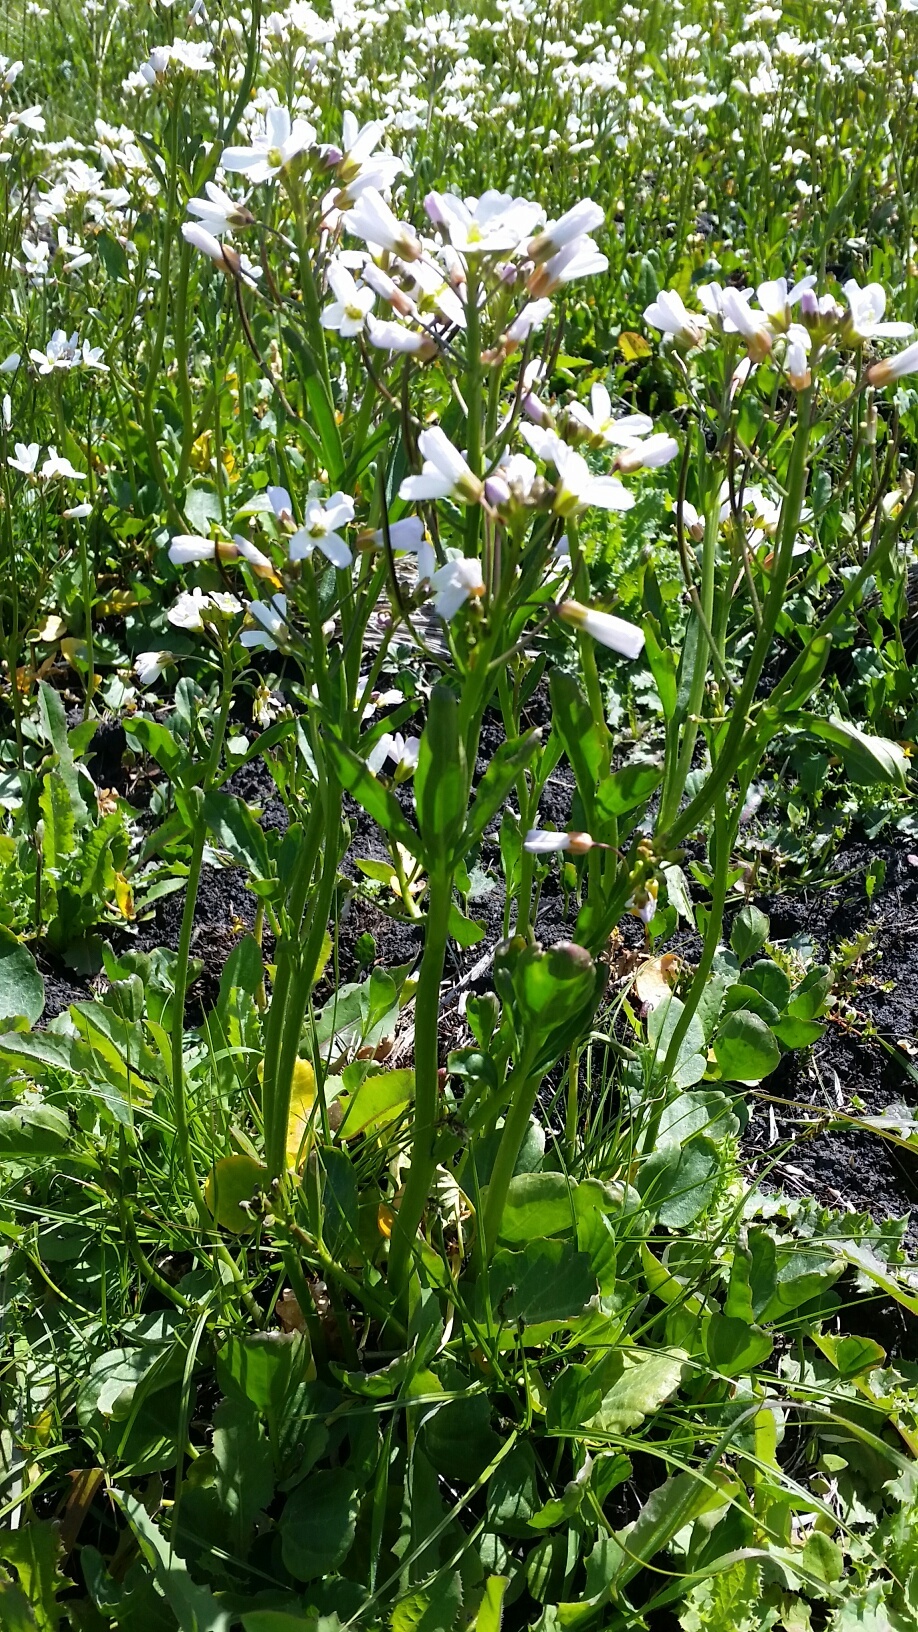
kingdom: Plantae
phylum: Tracheophyta
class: Magnoliopsida
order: Brassicales
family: Brassicaceae
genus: Cardamine
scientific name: Cardamine californica
